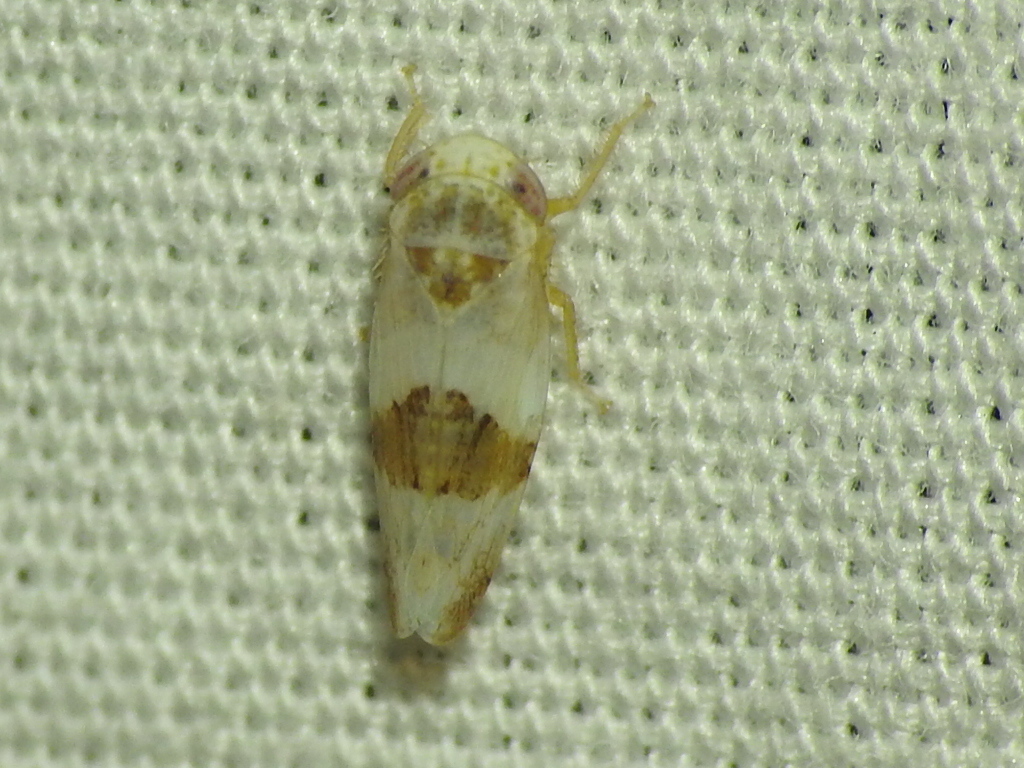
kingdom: Animalia
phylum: Arthropoda
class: Insecta
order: Hemiptera
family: Cicadellidae
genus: Norvellina
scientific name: Norvellina seminuda
